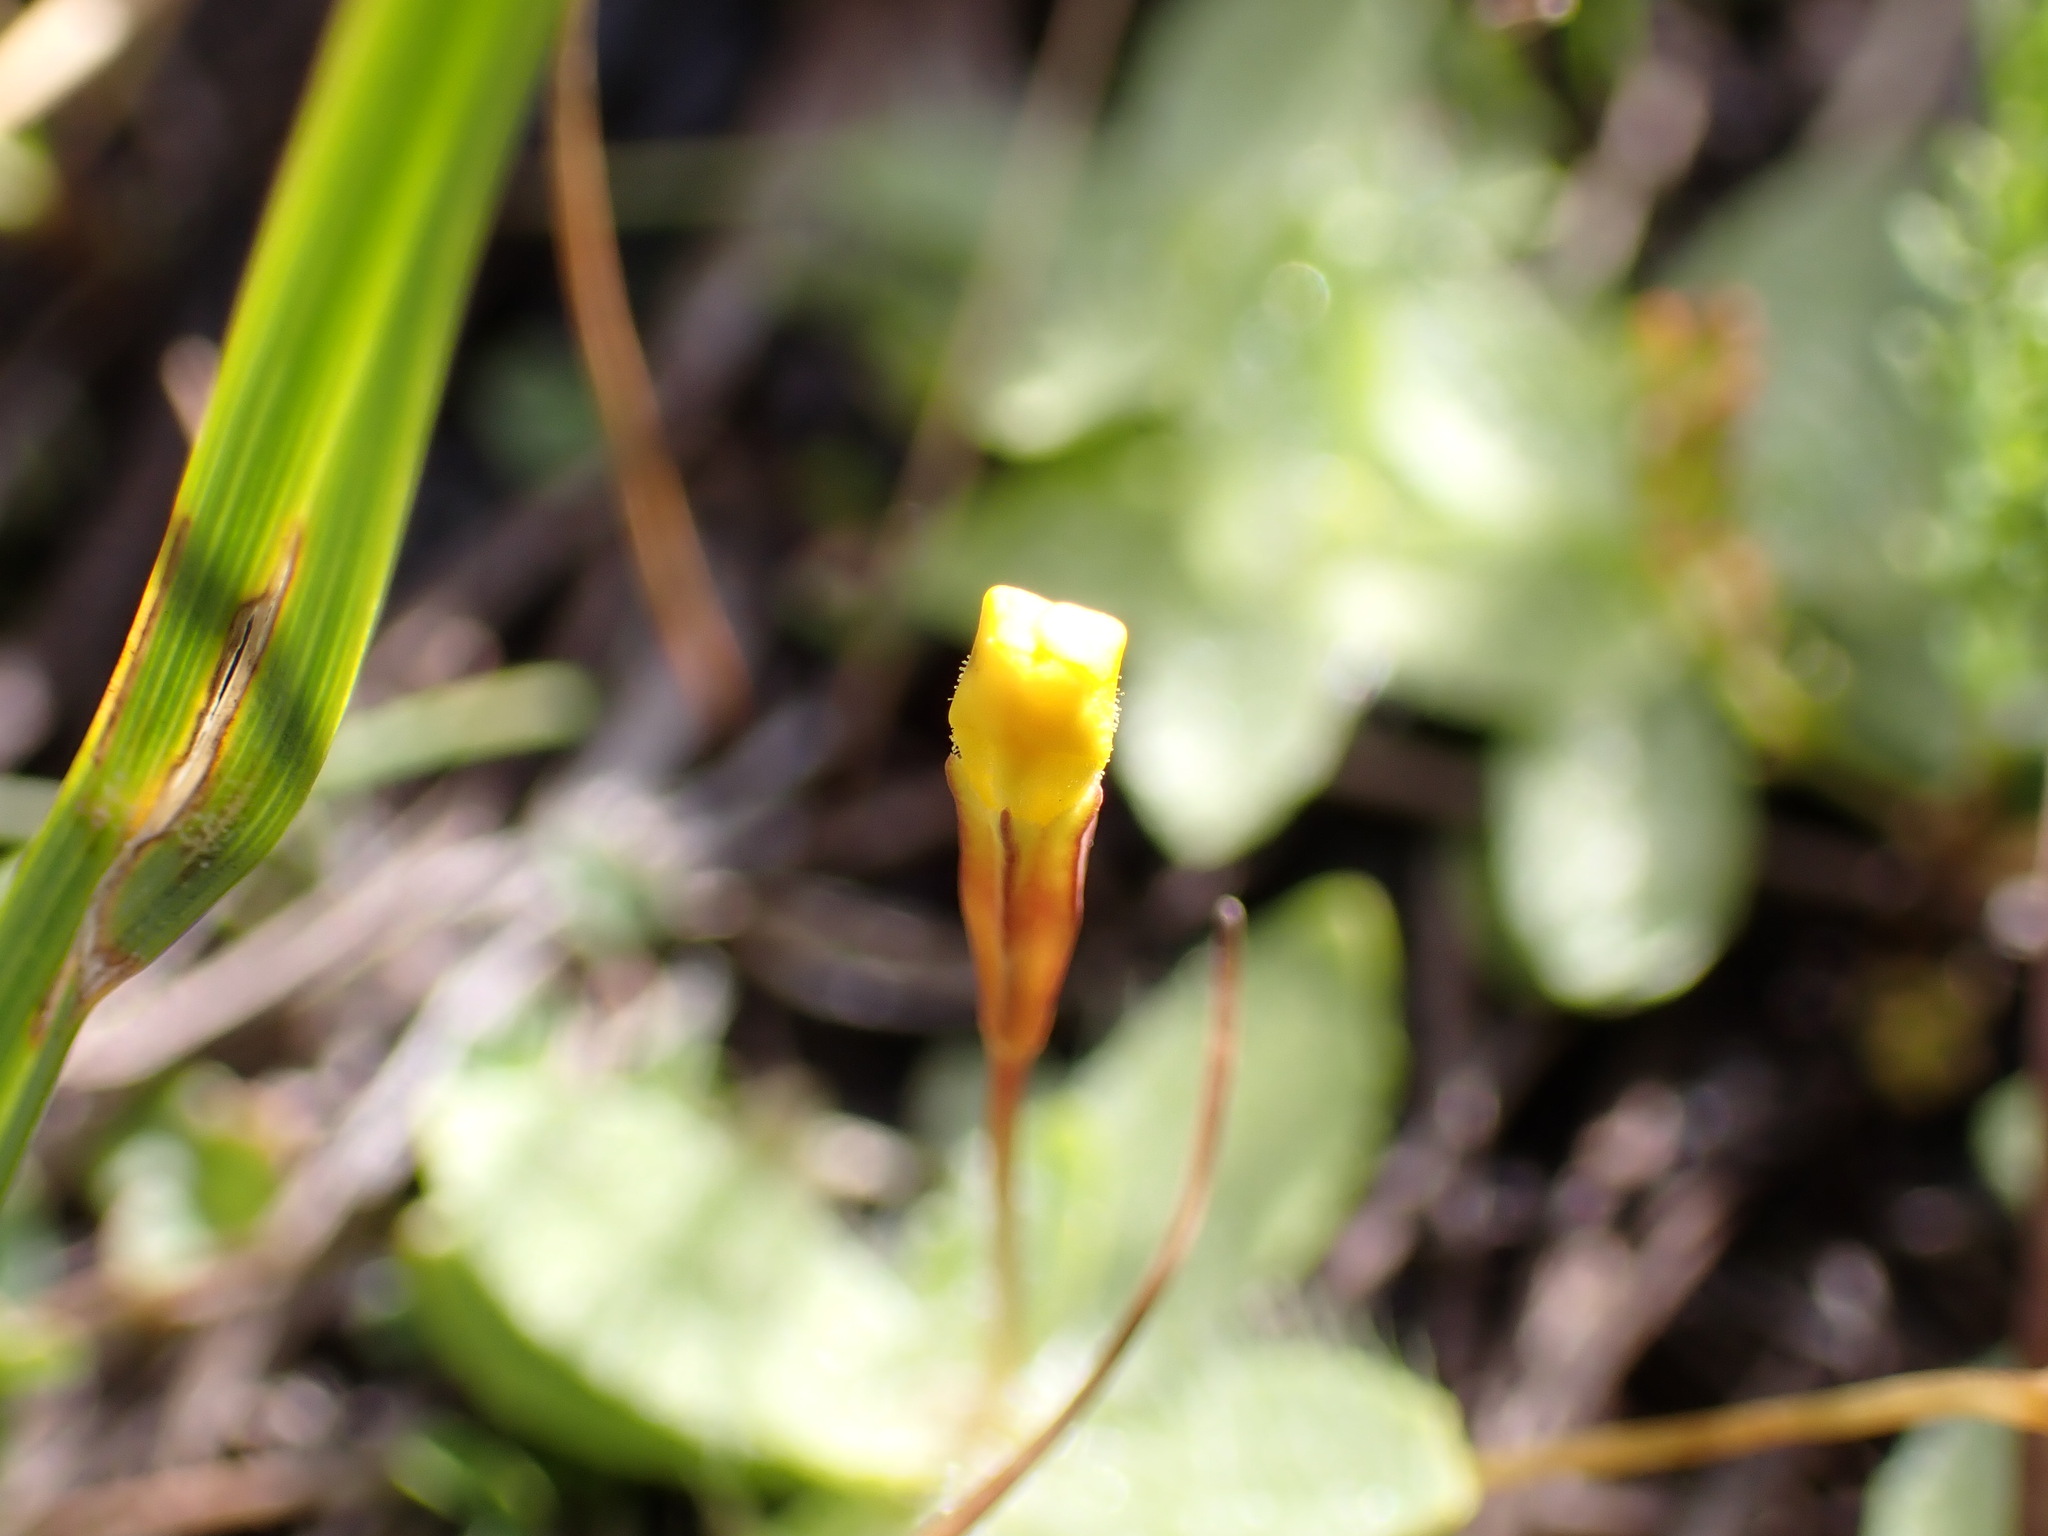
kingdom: Plantae
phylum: Tracheophyta
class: Magnoliopsida
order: Lamiales
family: Phrymaceae
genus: Erythranthe
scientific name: Erythranthe primuloides
